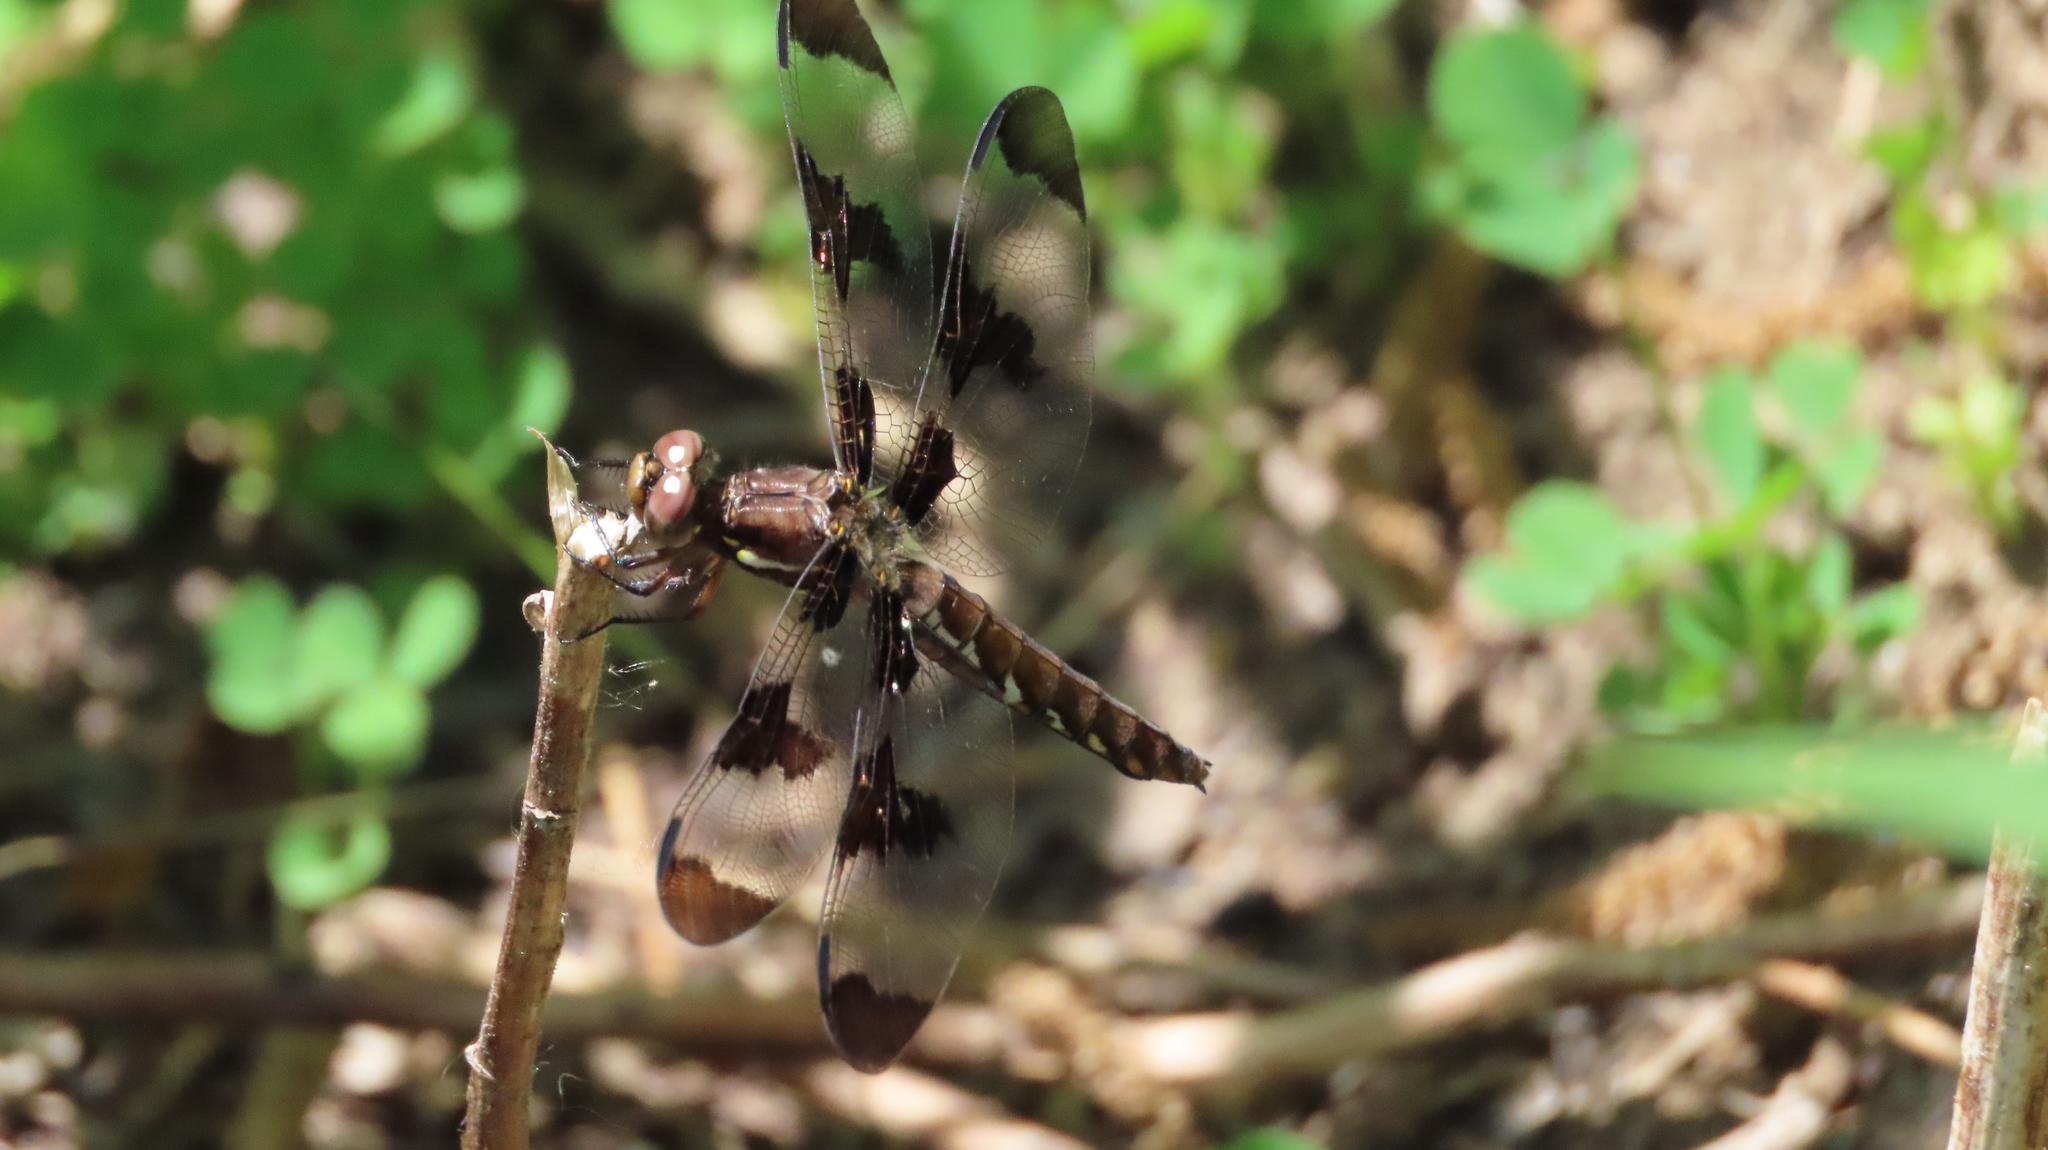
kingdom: Animalia
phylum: Arthropoda
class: Insecta
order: Odonata
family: Libellulidae
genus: Plathemis
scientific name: Plathemis lydia
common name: Common whitetail
